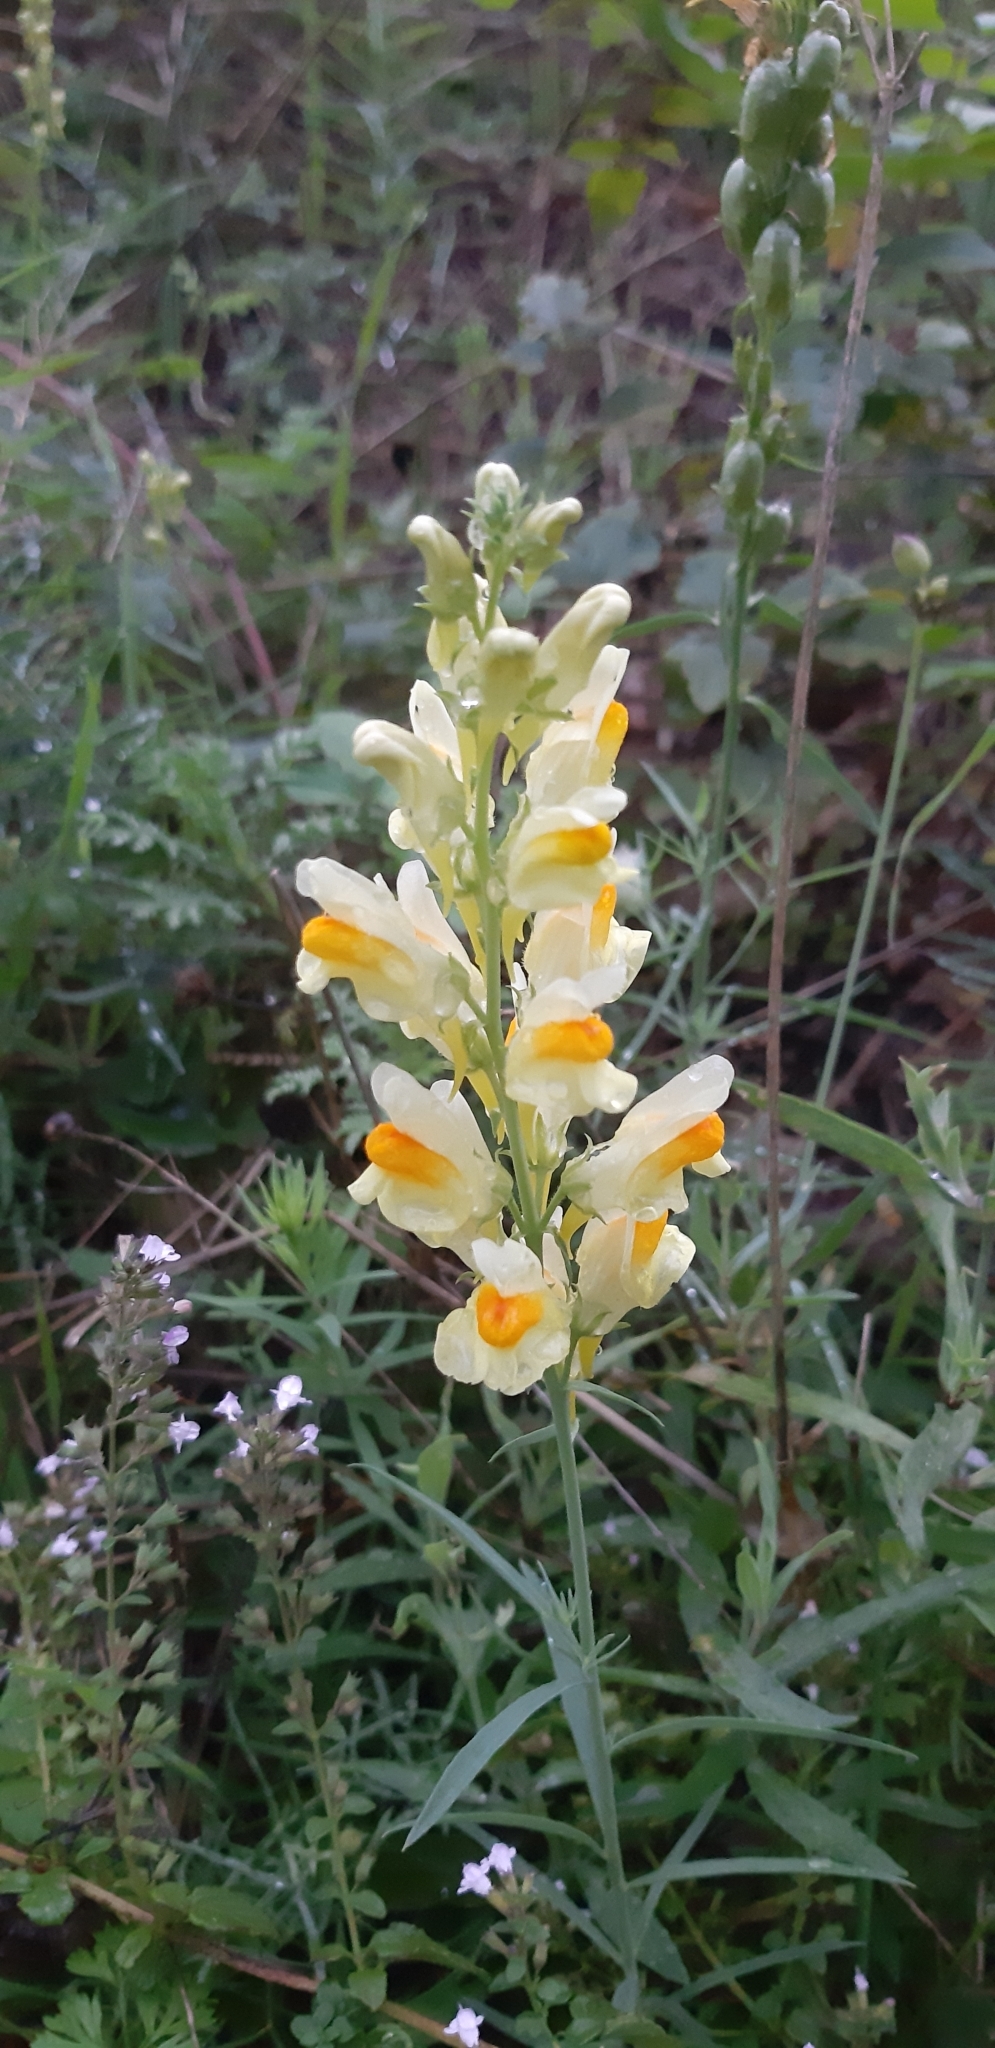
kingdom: Plantae
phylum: Tracheophyta
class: Magnoliopsida
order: Lamiales
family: Plantaginaceae
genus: Linaria
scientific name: Linaria vulgaris
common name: Butter and eggs
